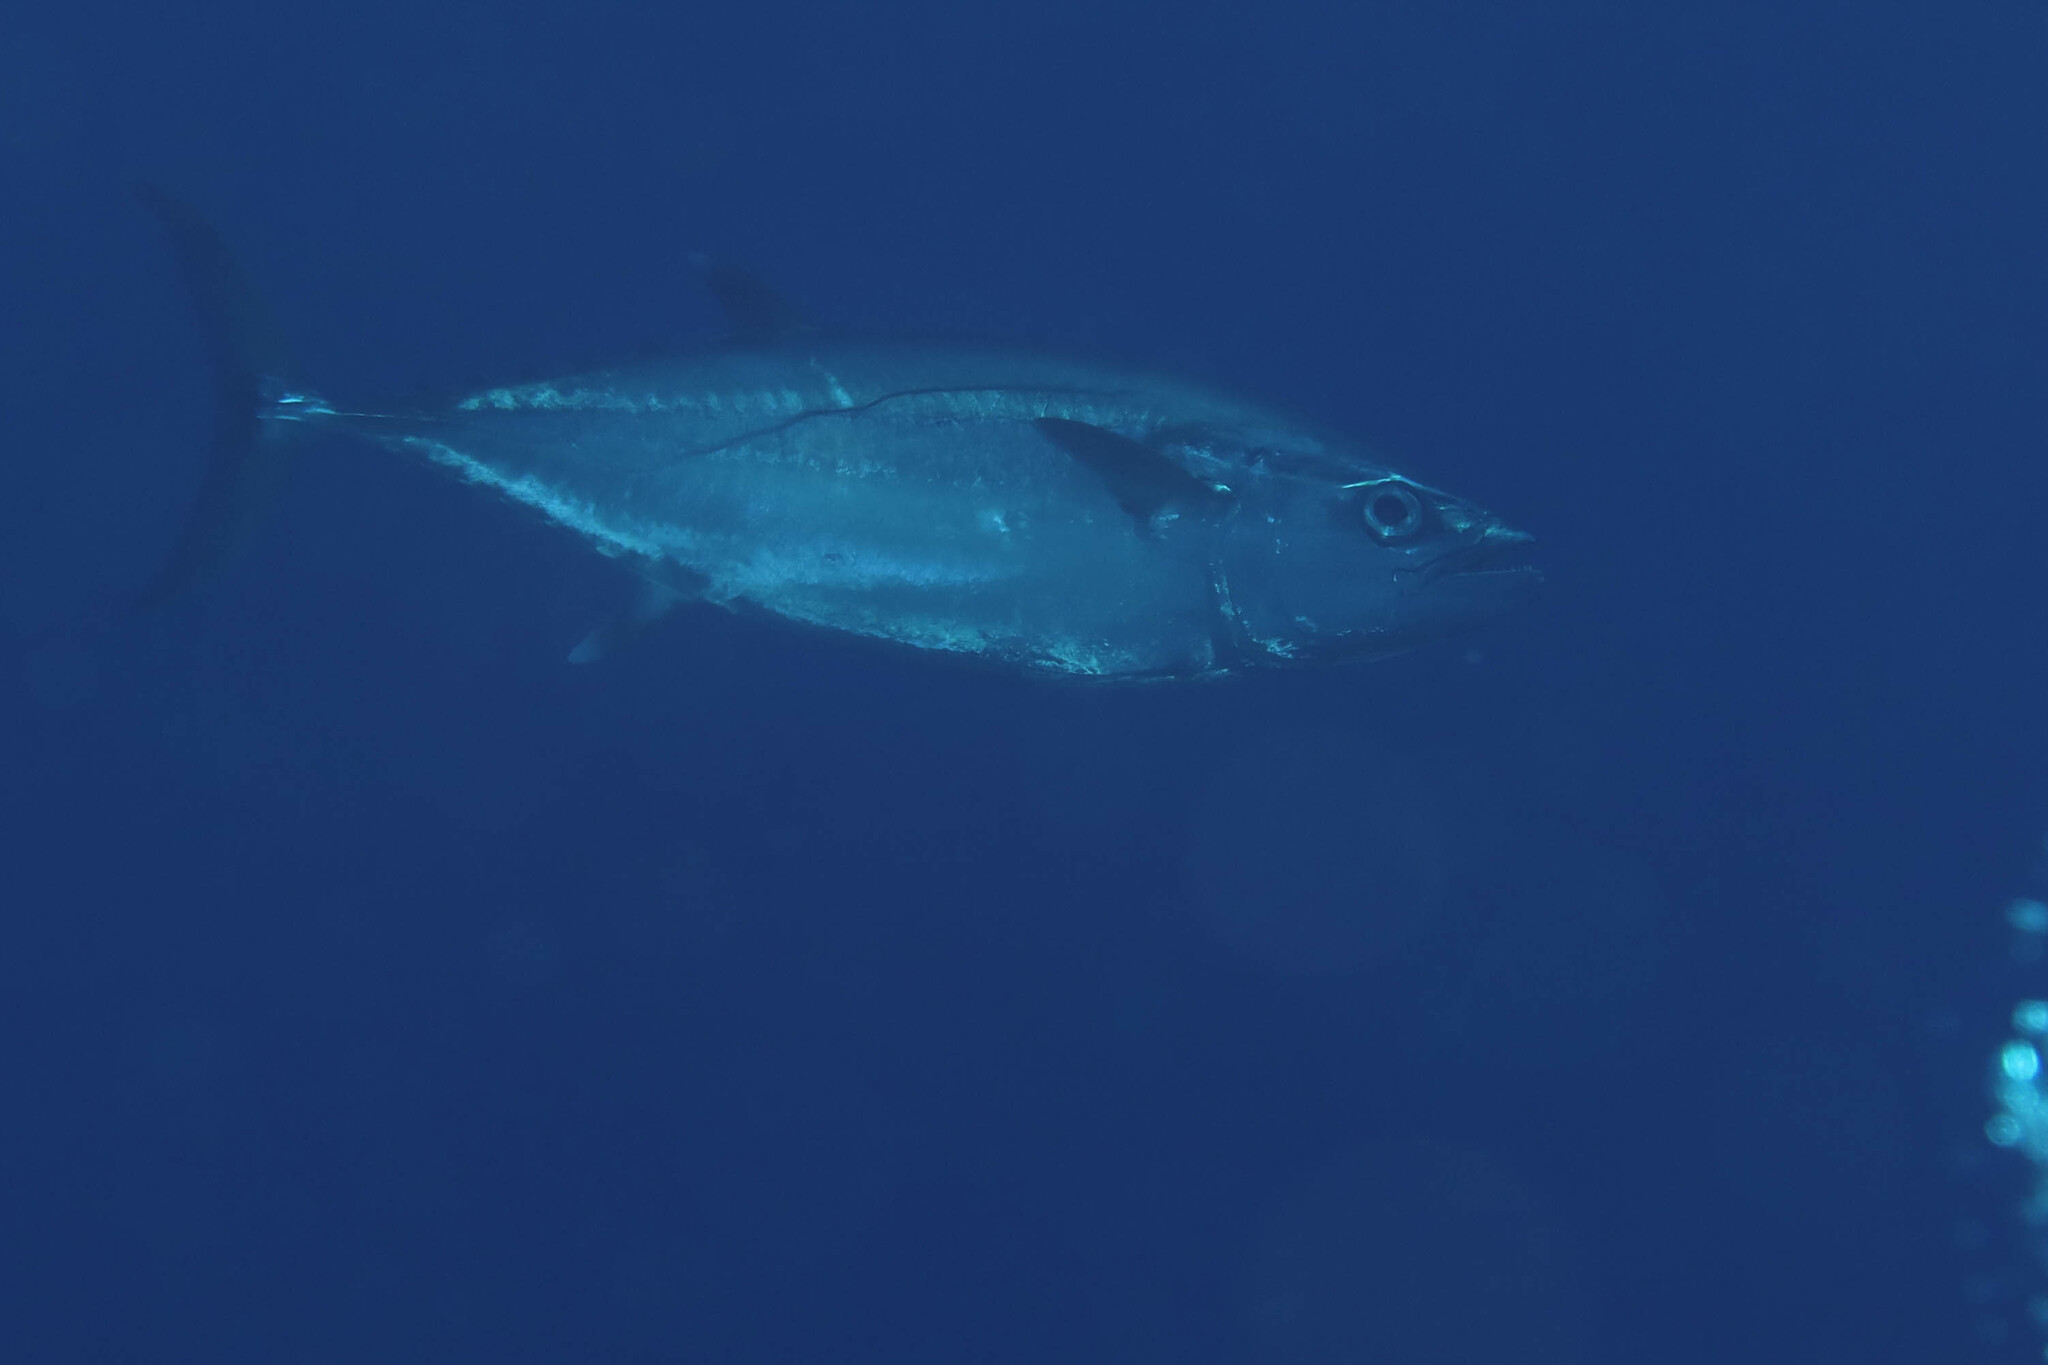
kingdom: Animalia
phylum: Chordata
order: Perciformes
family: Scombridae
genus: Gymnosarda
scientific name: Gymnosarda unicolor
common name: Dogtooth tuna
